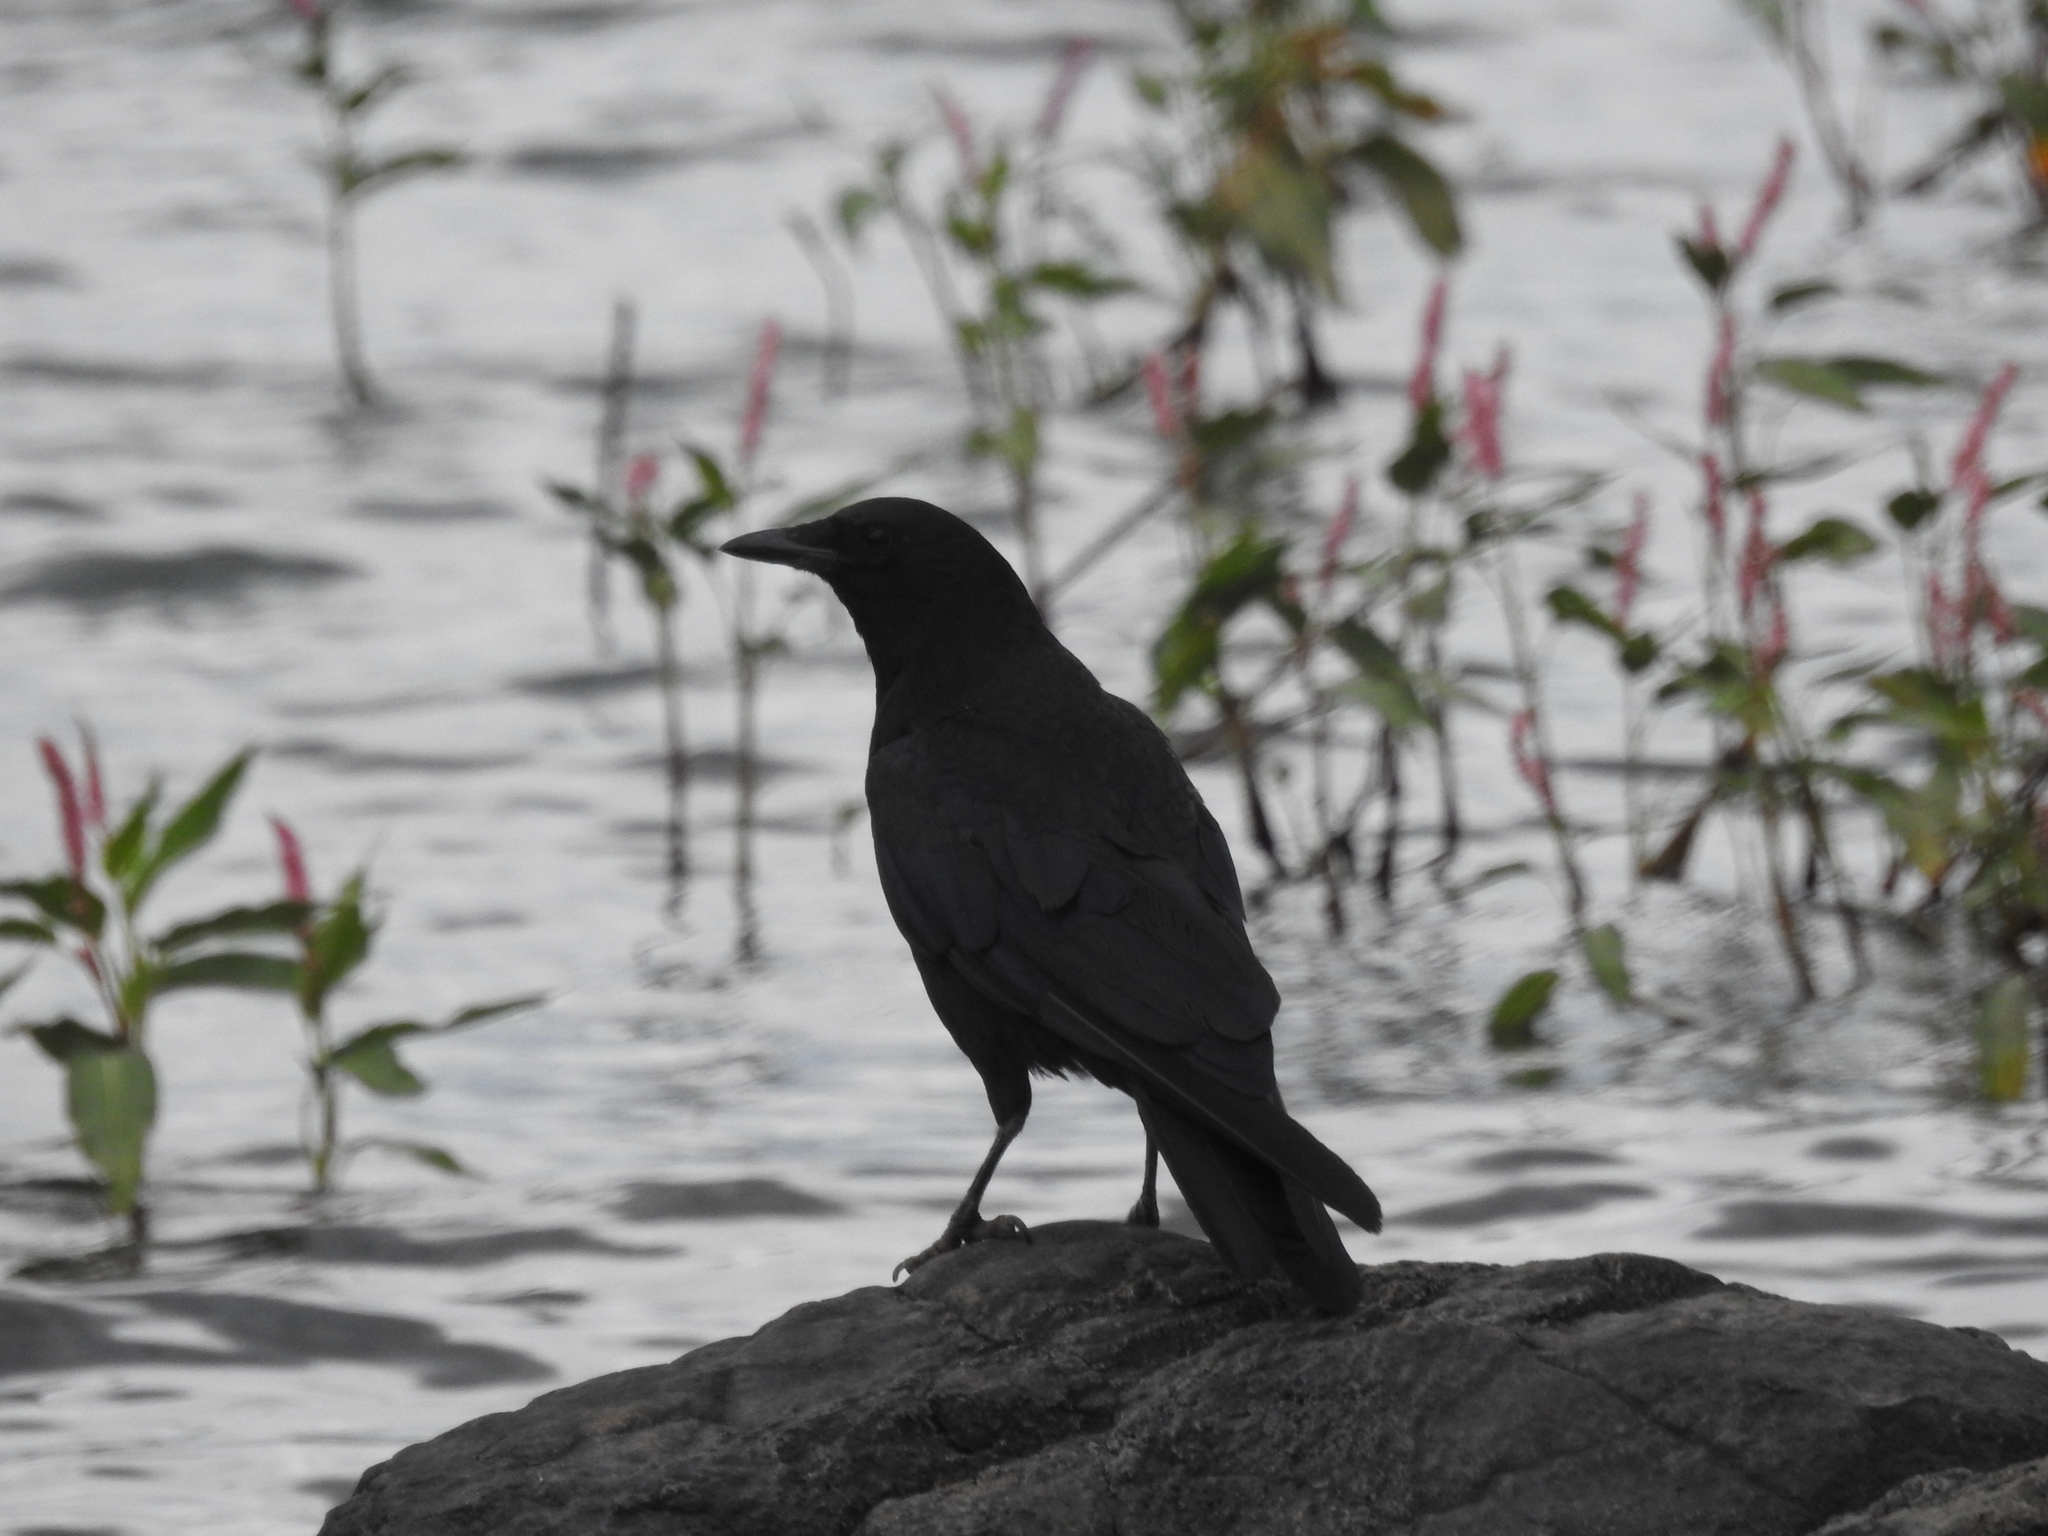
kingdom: Animalia
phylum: Chordata
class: Aves
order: Passeriformes
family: Corvidae
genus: Corvus
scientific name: Corvus brachyrhynchos
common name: American crow
